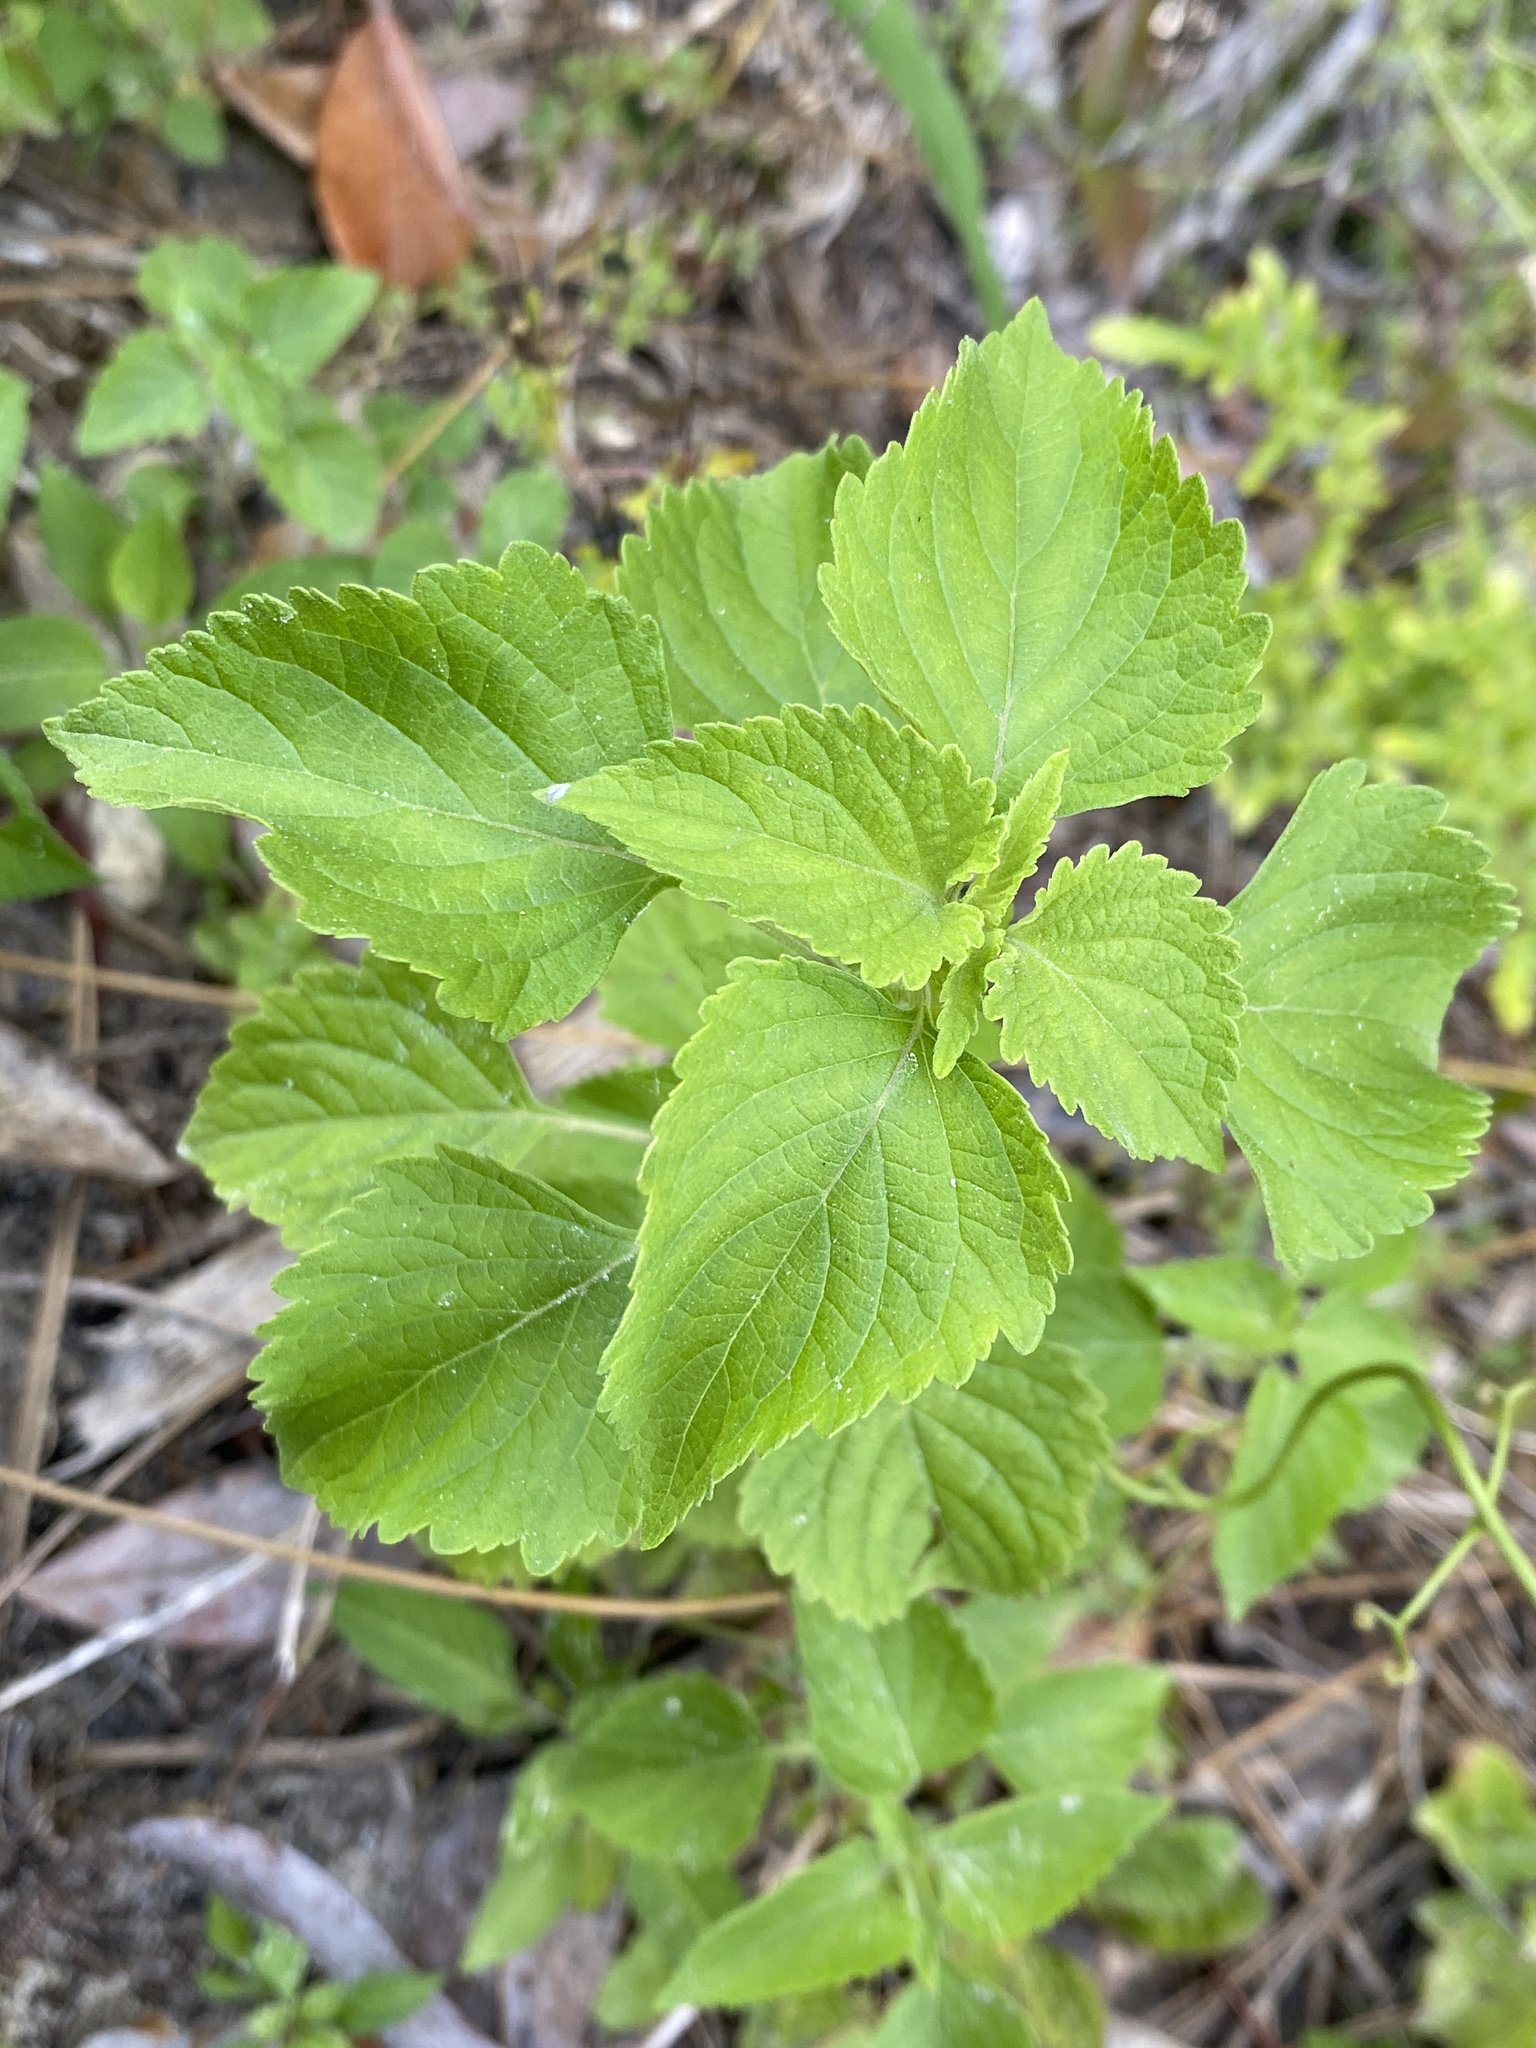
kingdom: Plantae
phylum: Tracheophyta
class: Magnoliopsida
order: Lamiales
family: Lamiaceae
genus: Cantinoa
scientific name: Cantinoa mutabilis
